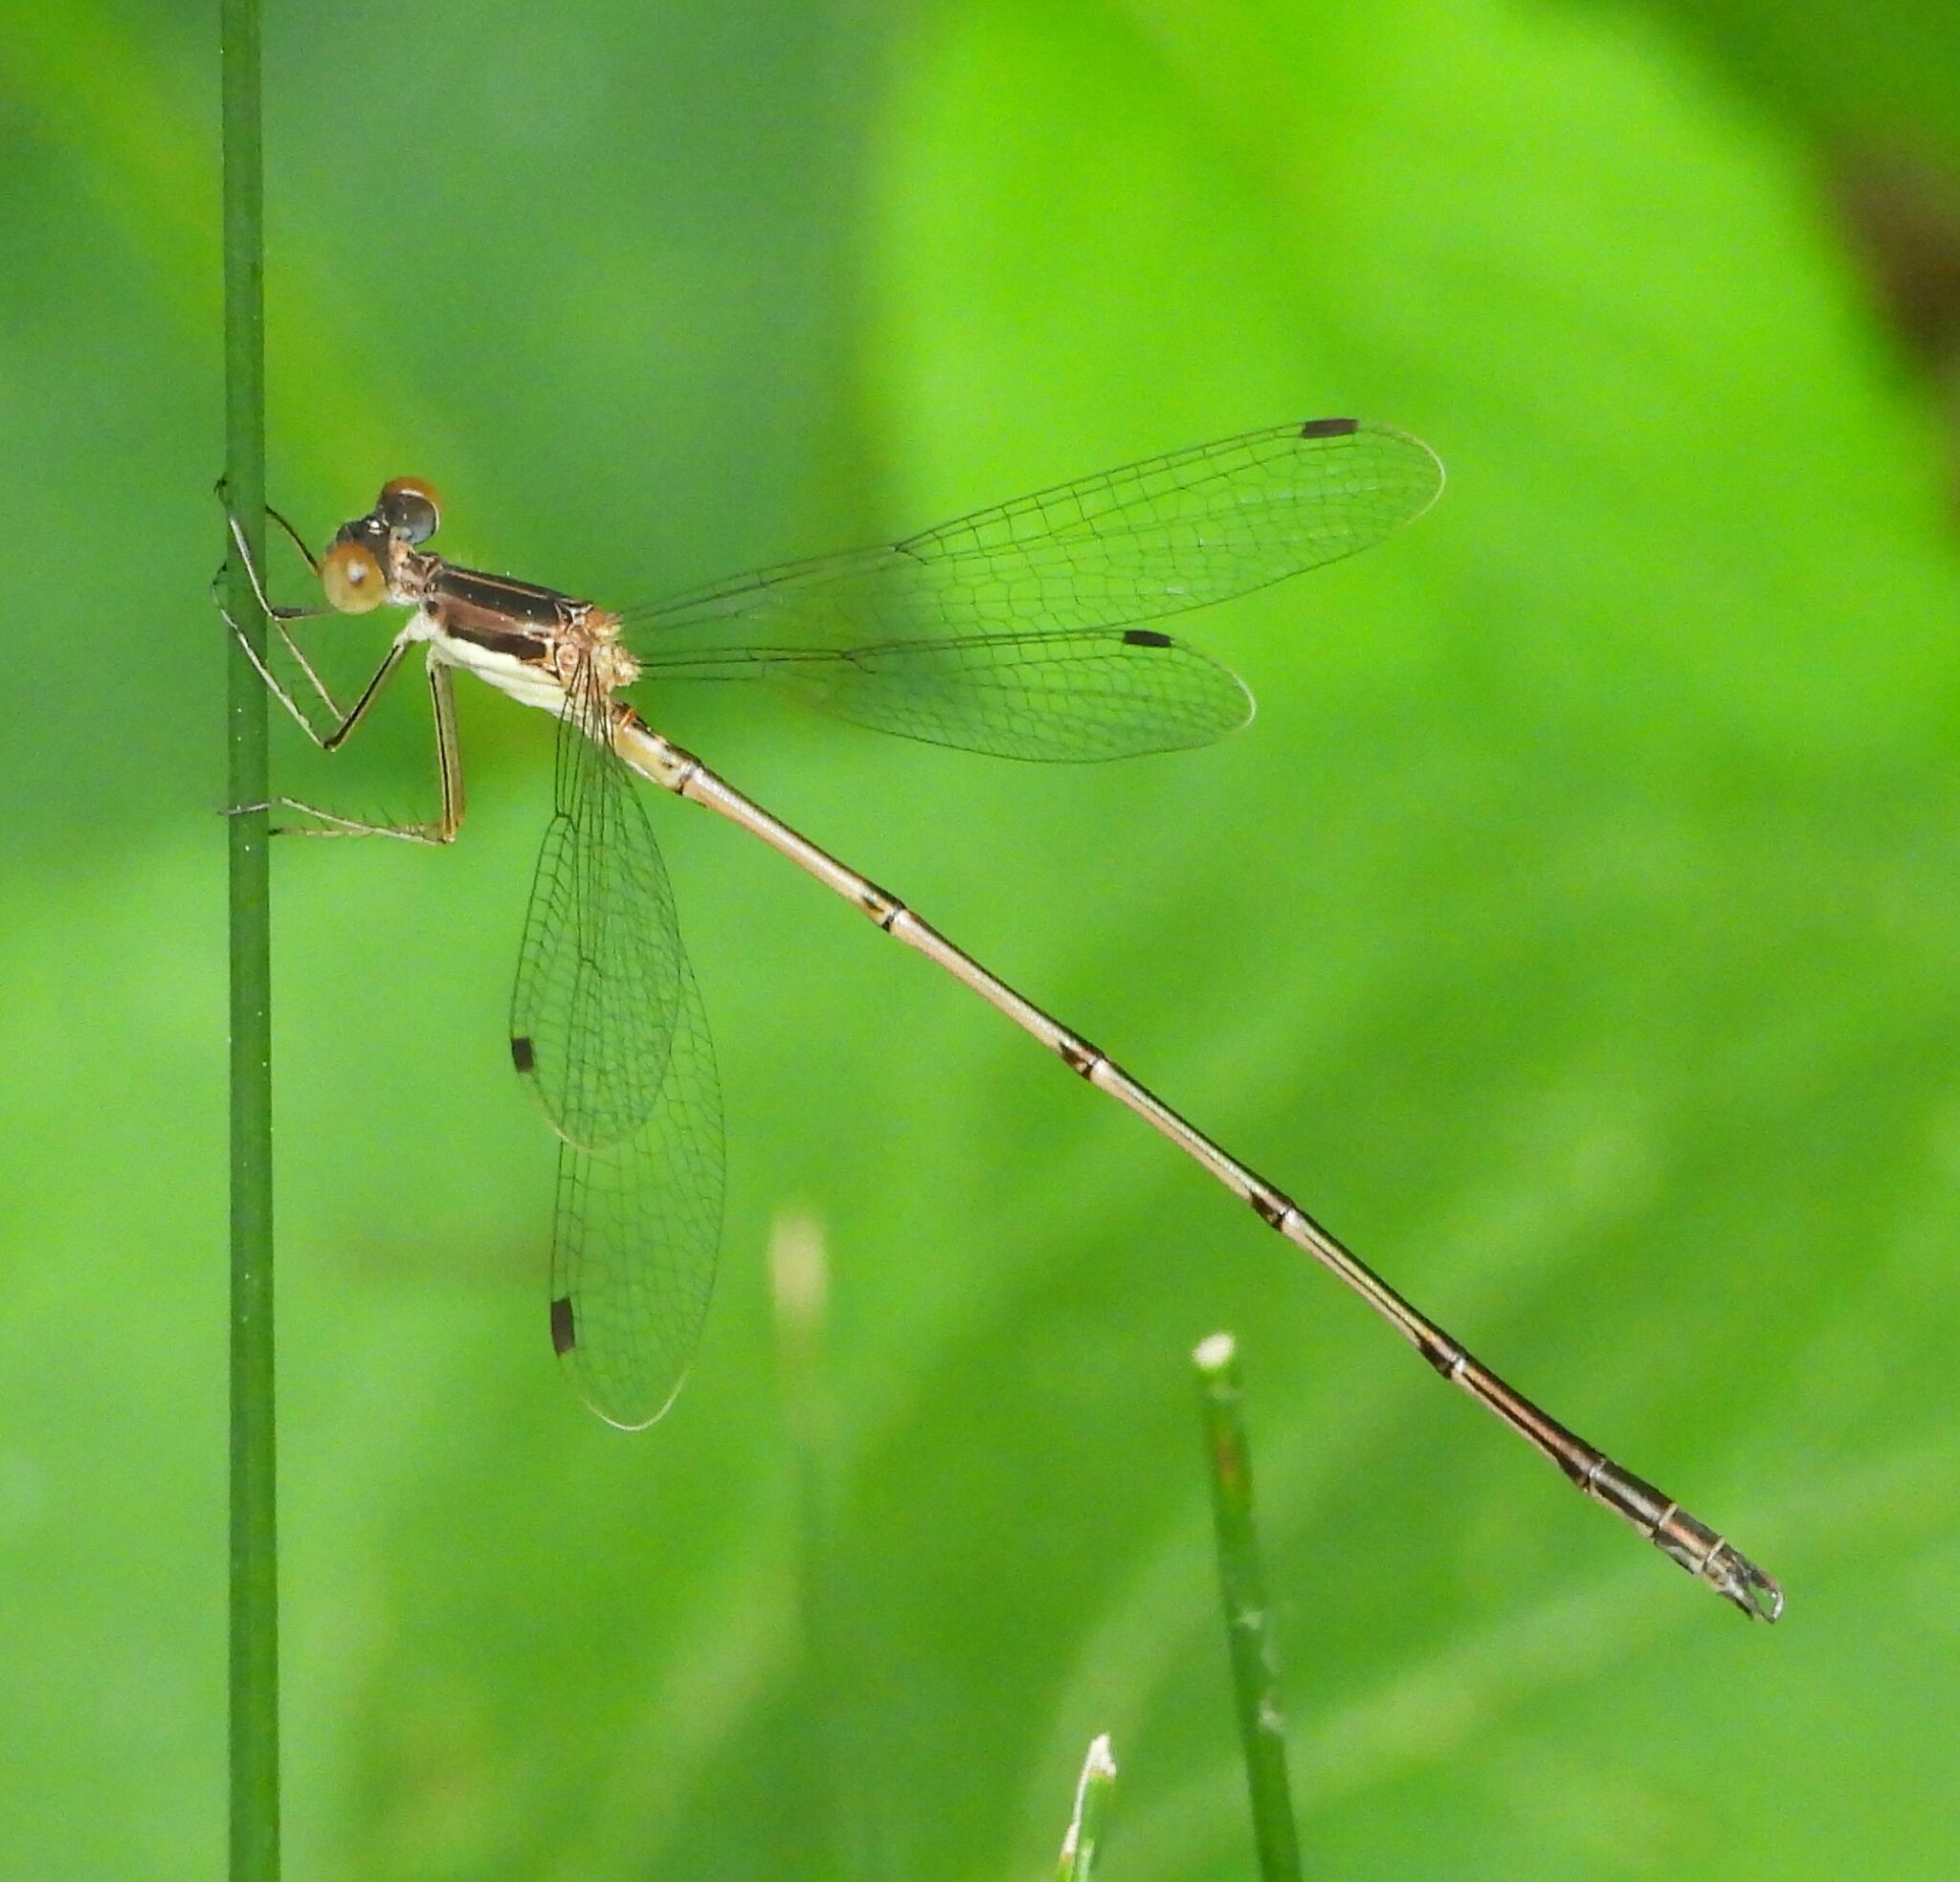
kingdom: Animalia
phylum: Arthropoda
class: Insecta
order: Odonata
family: Lestidae
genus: Lestes
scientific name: Lestes rectangularis
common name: Slender spreadwing
